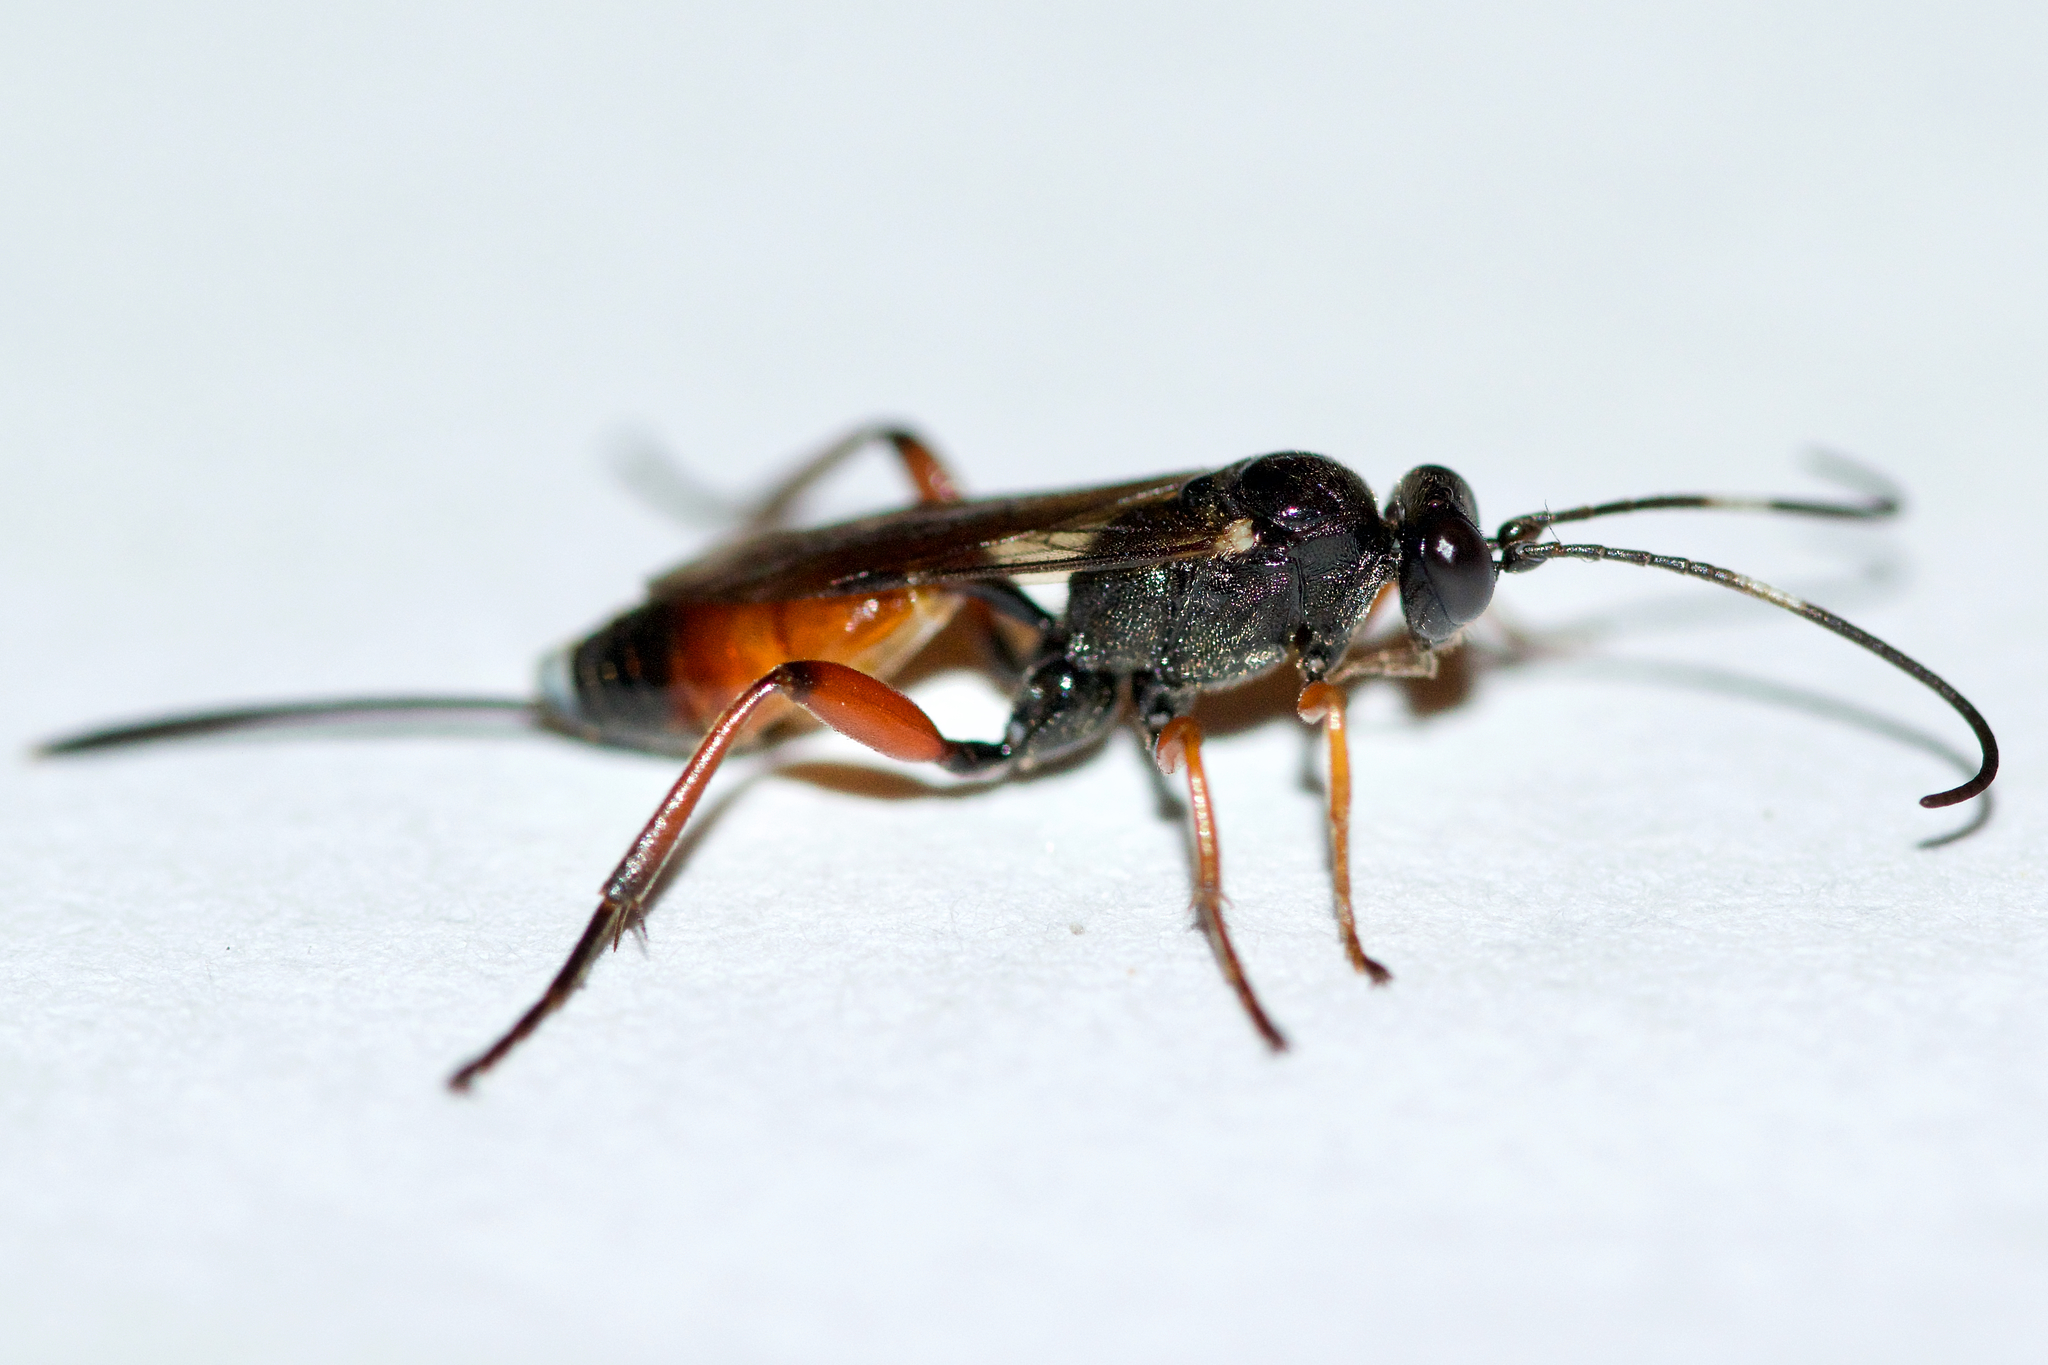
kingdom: Animalia
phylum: Arthropoda
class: Insecta
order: Hymenoptera
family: Ichneumonidae
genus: Aritranis
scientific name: Aritranis director
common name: Ichneumonid wasp
